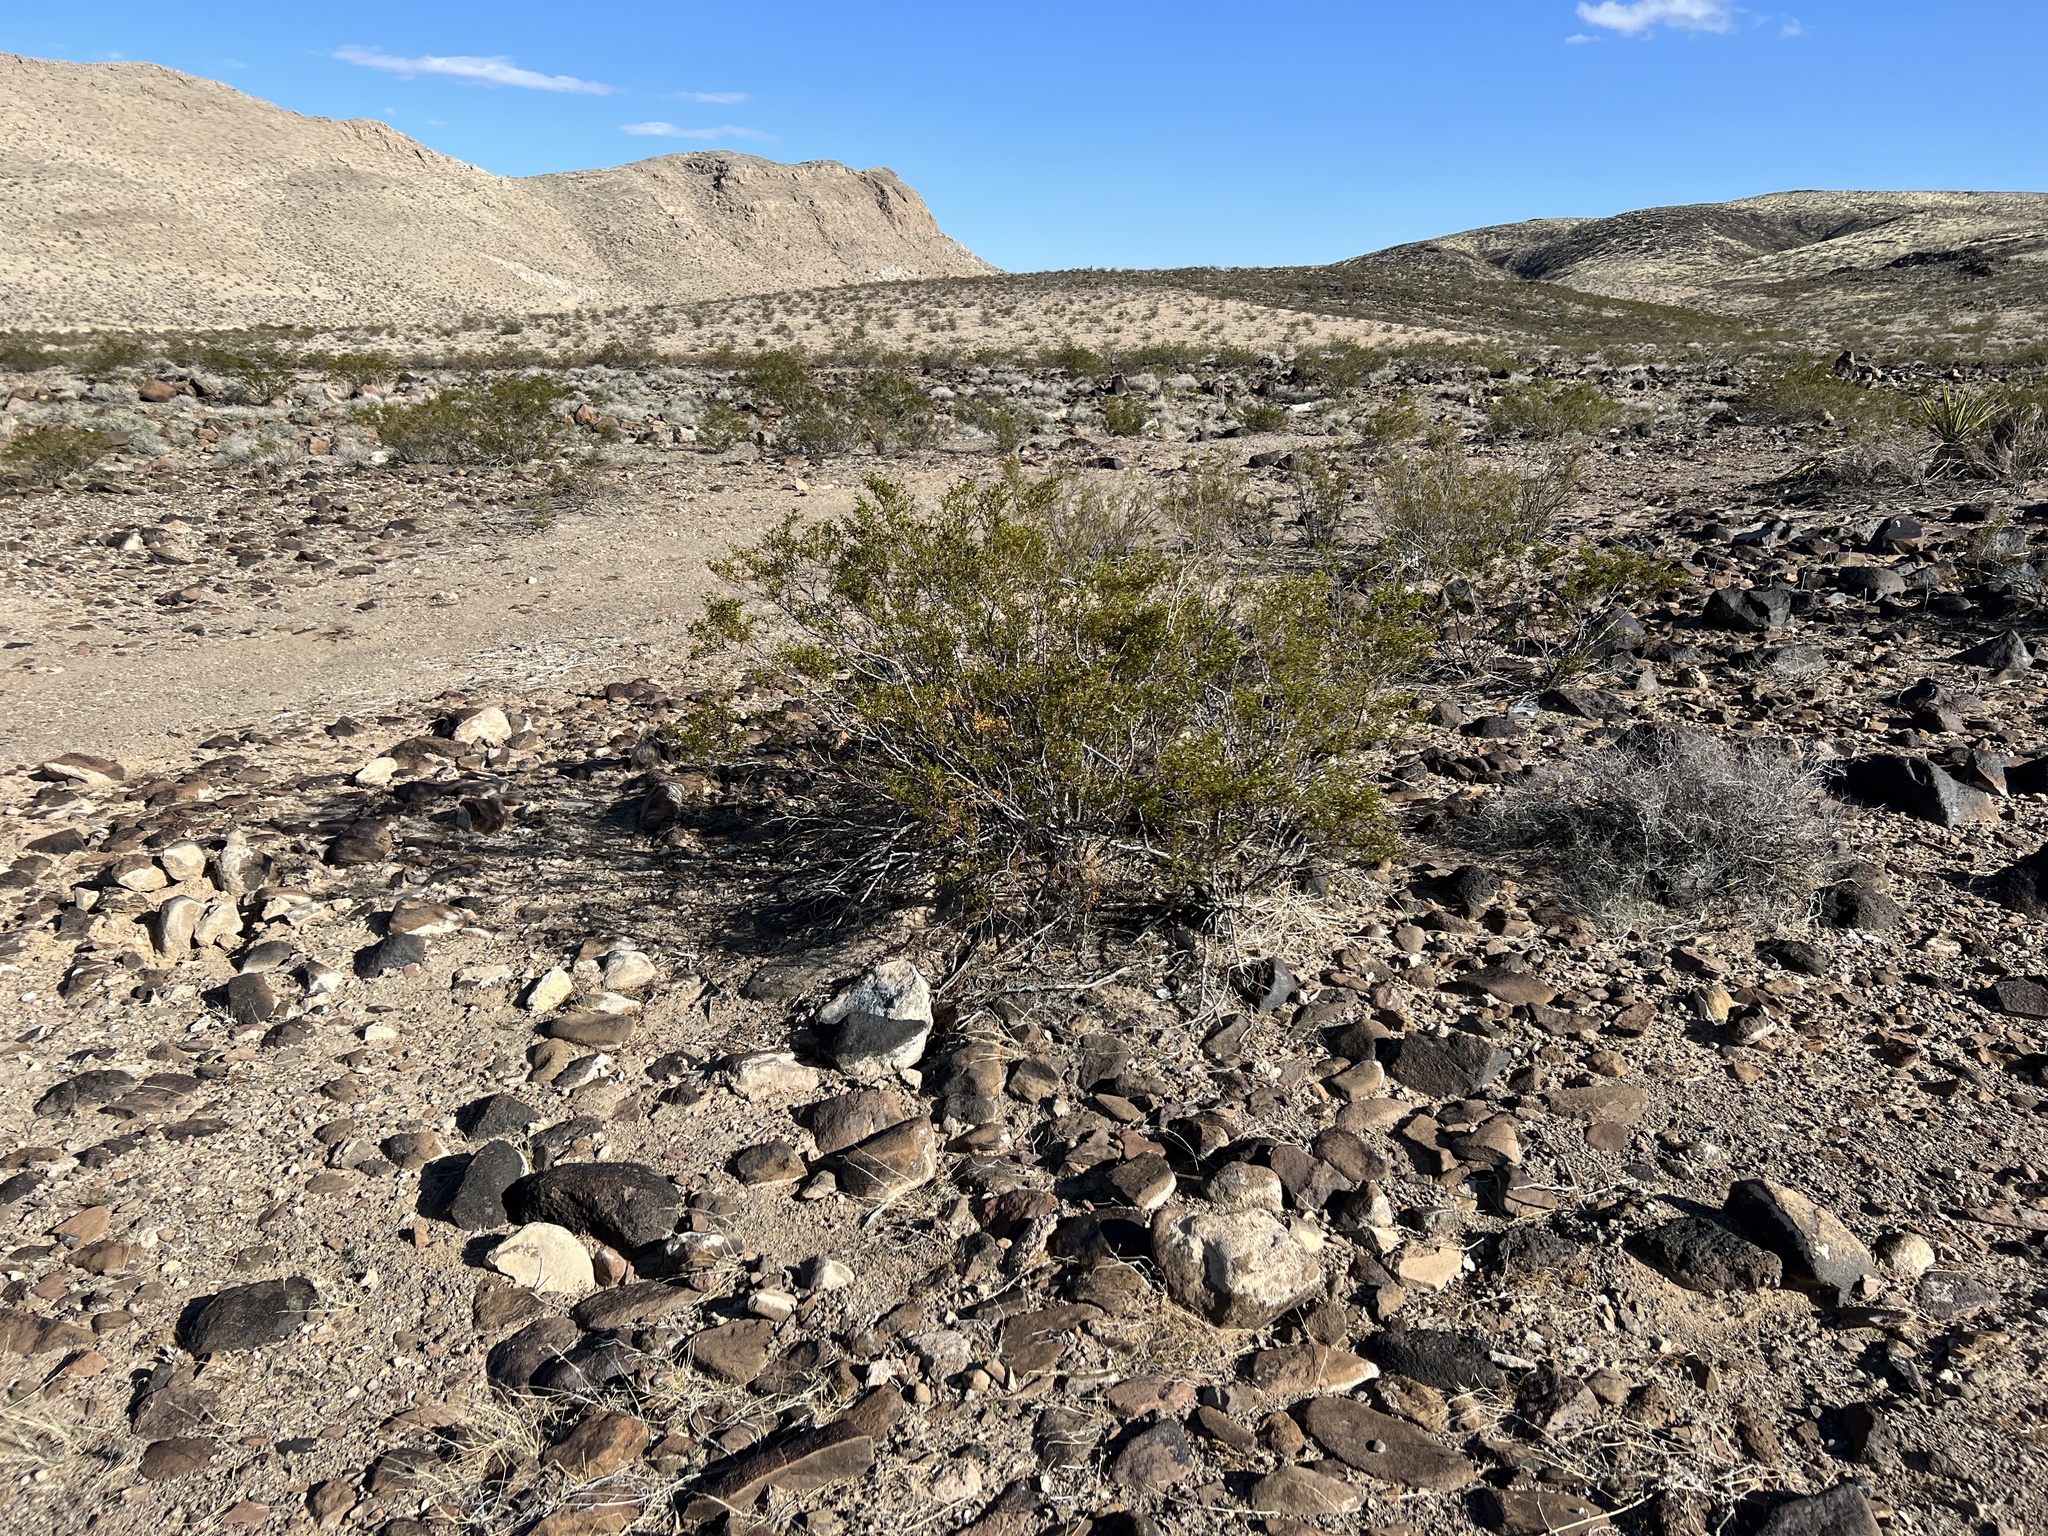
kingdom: Plantae
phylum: Tracheophyta
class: Magnoliopsida
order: Zygophyllales
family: Zygophyllaceae
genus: Larrea
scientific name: Larrea tridentata
